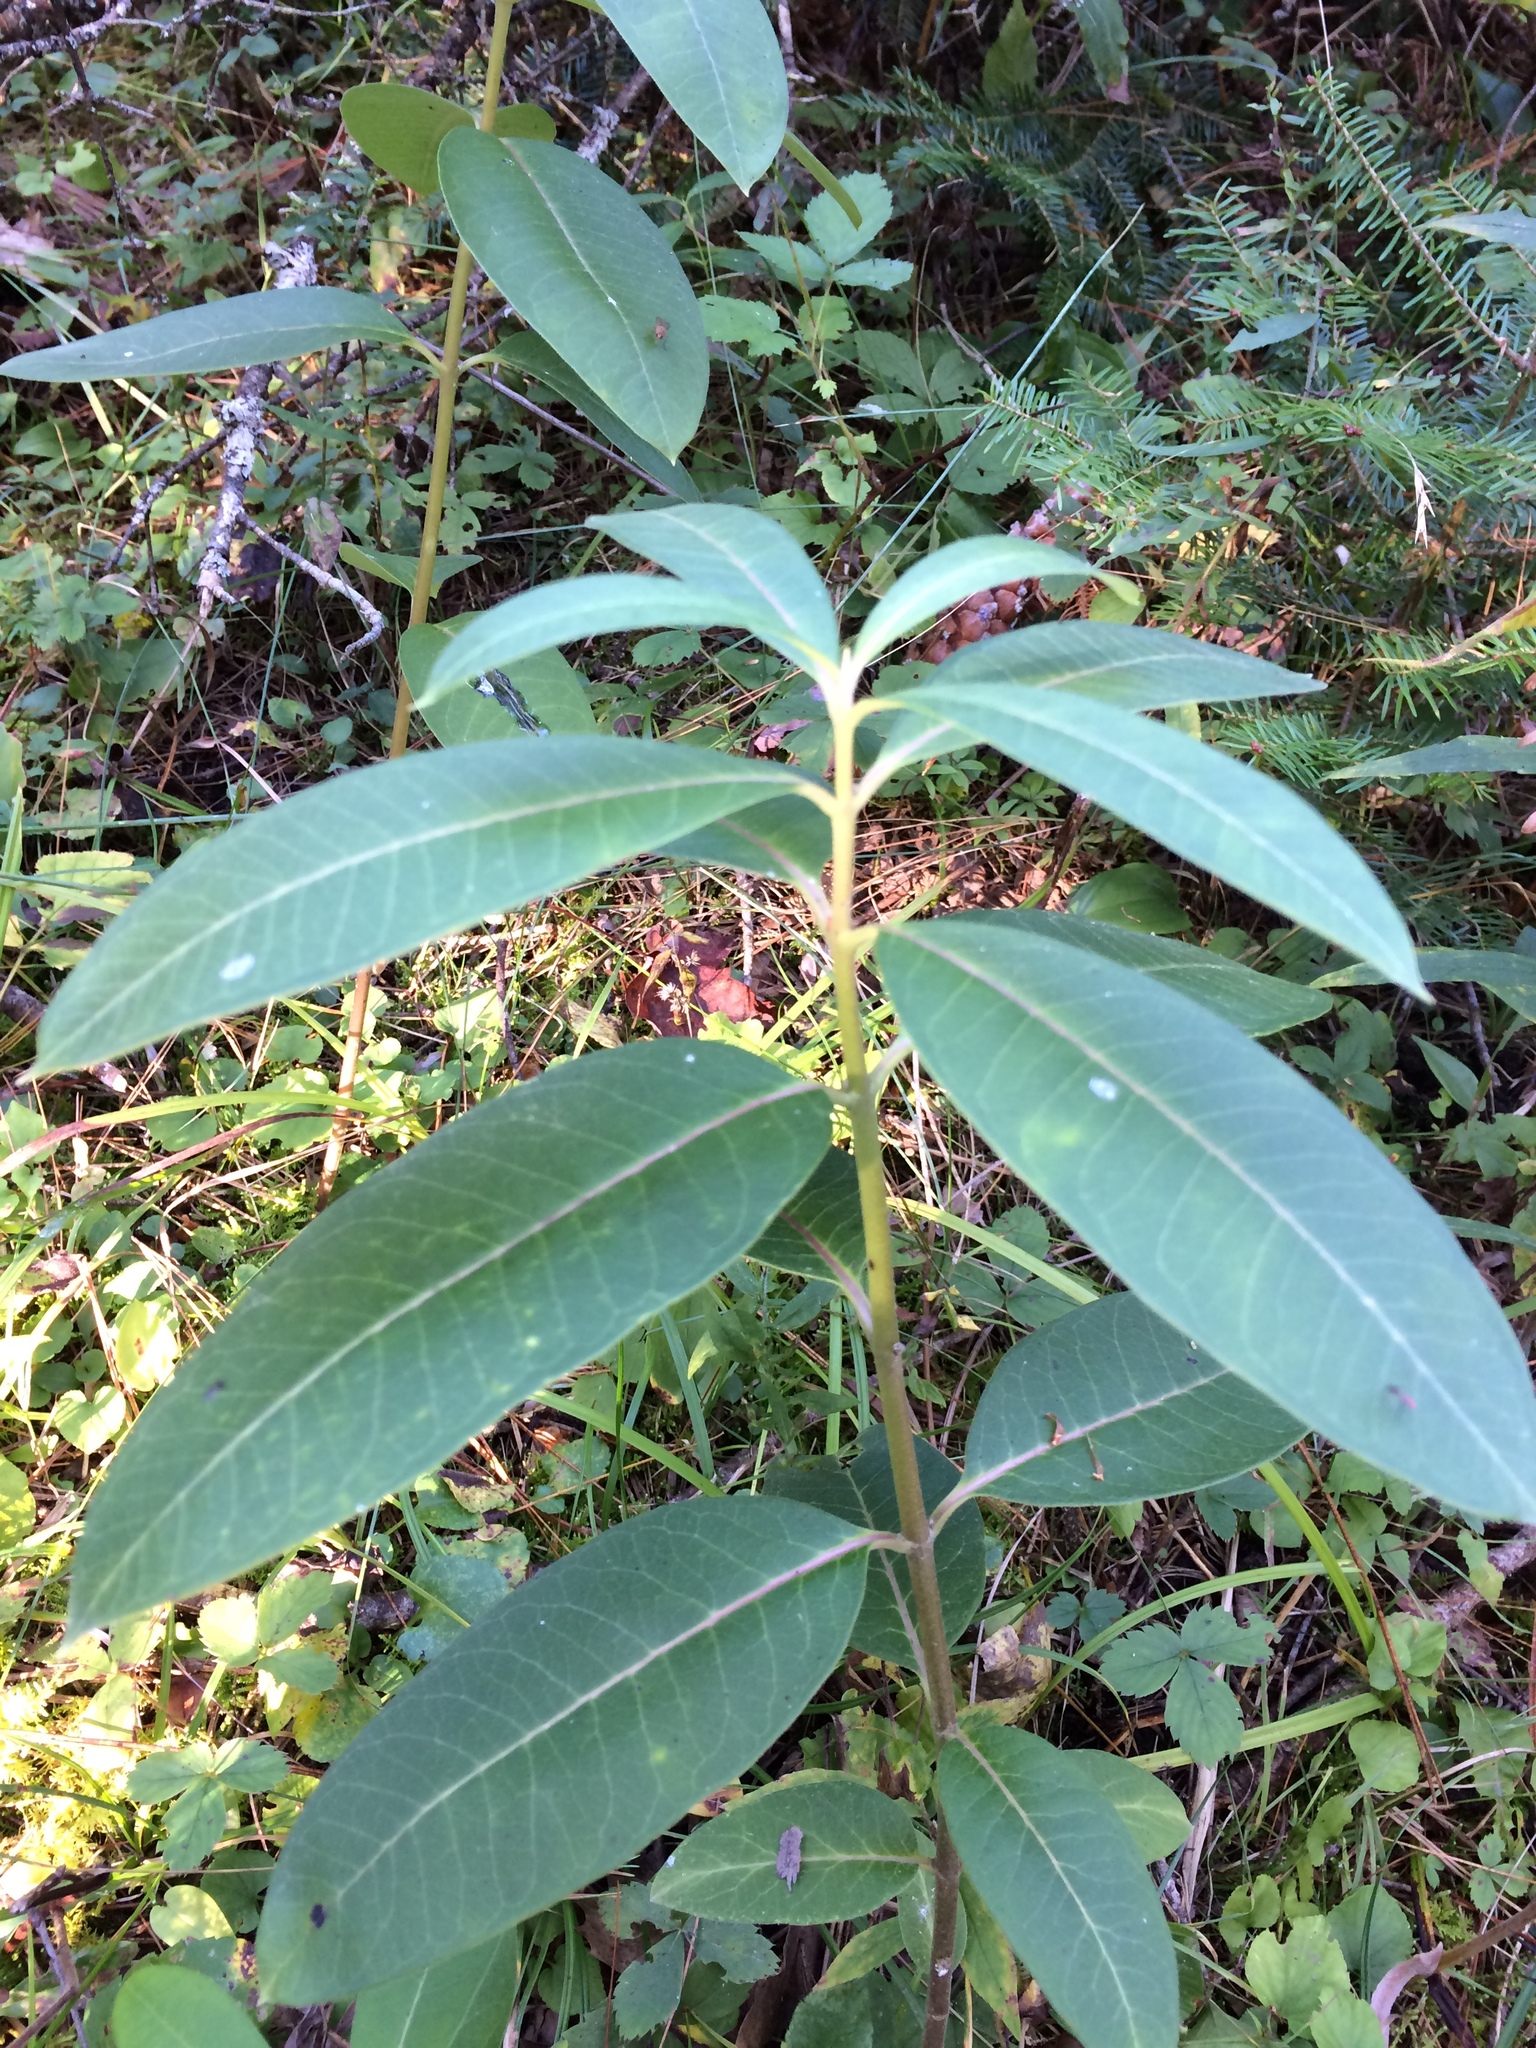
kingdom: Plantae
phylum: Tracheophyta
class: Magnoliopsida
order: Gentianales
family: Apocynaceae
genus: Asclepias
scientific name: Asclepias syriaca
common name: Common milkweed
